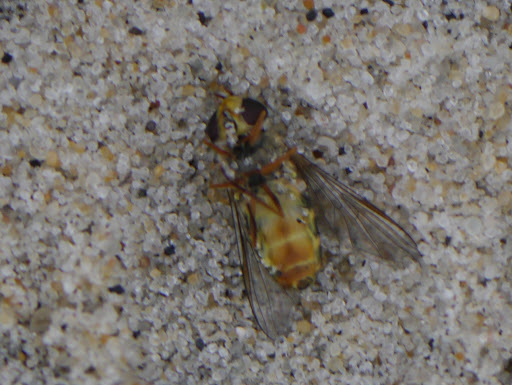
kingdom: Animalia
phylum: Arthropoda
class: Insecta
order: Diptera
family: Syrphidae
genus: Syrphus
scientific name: Syrphus
